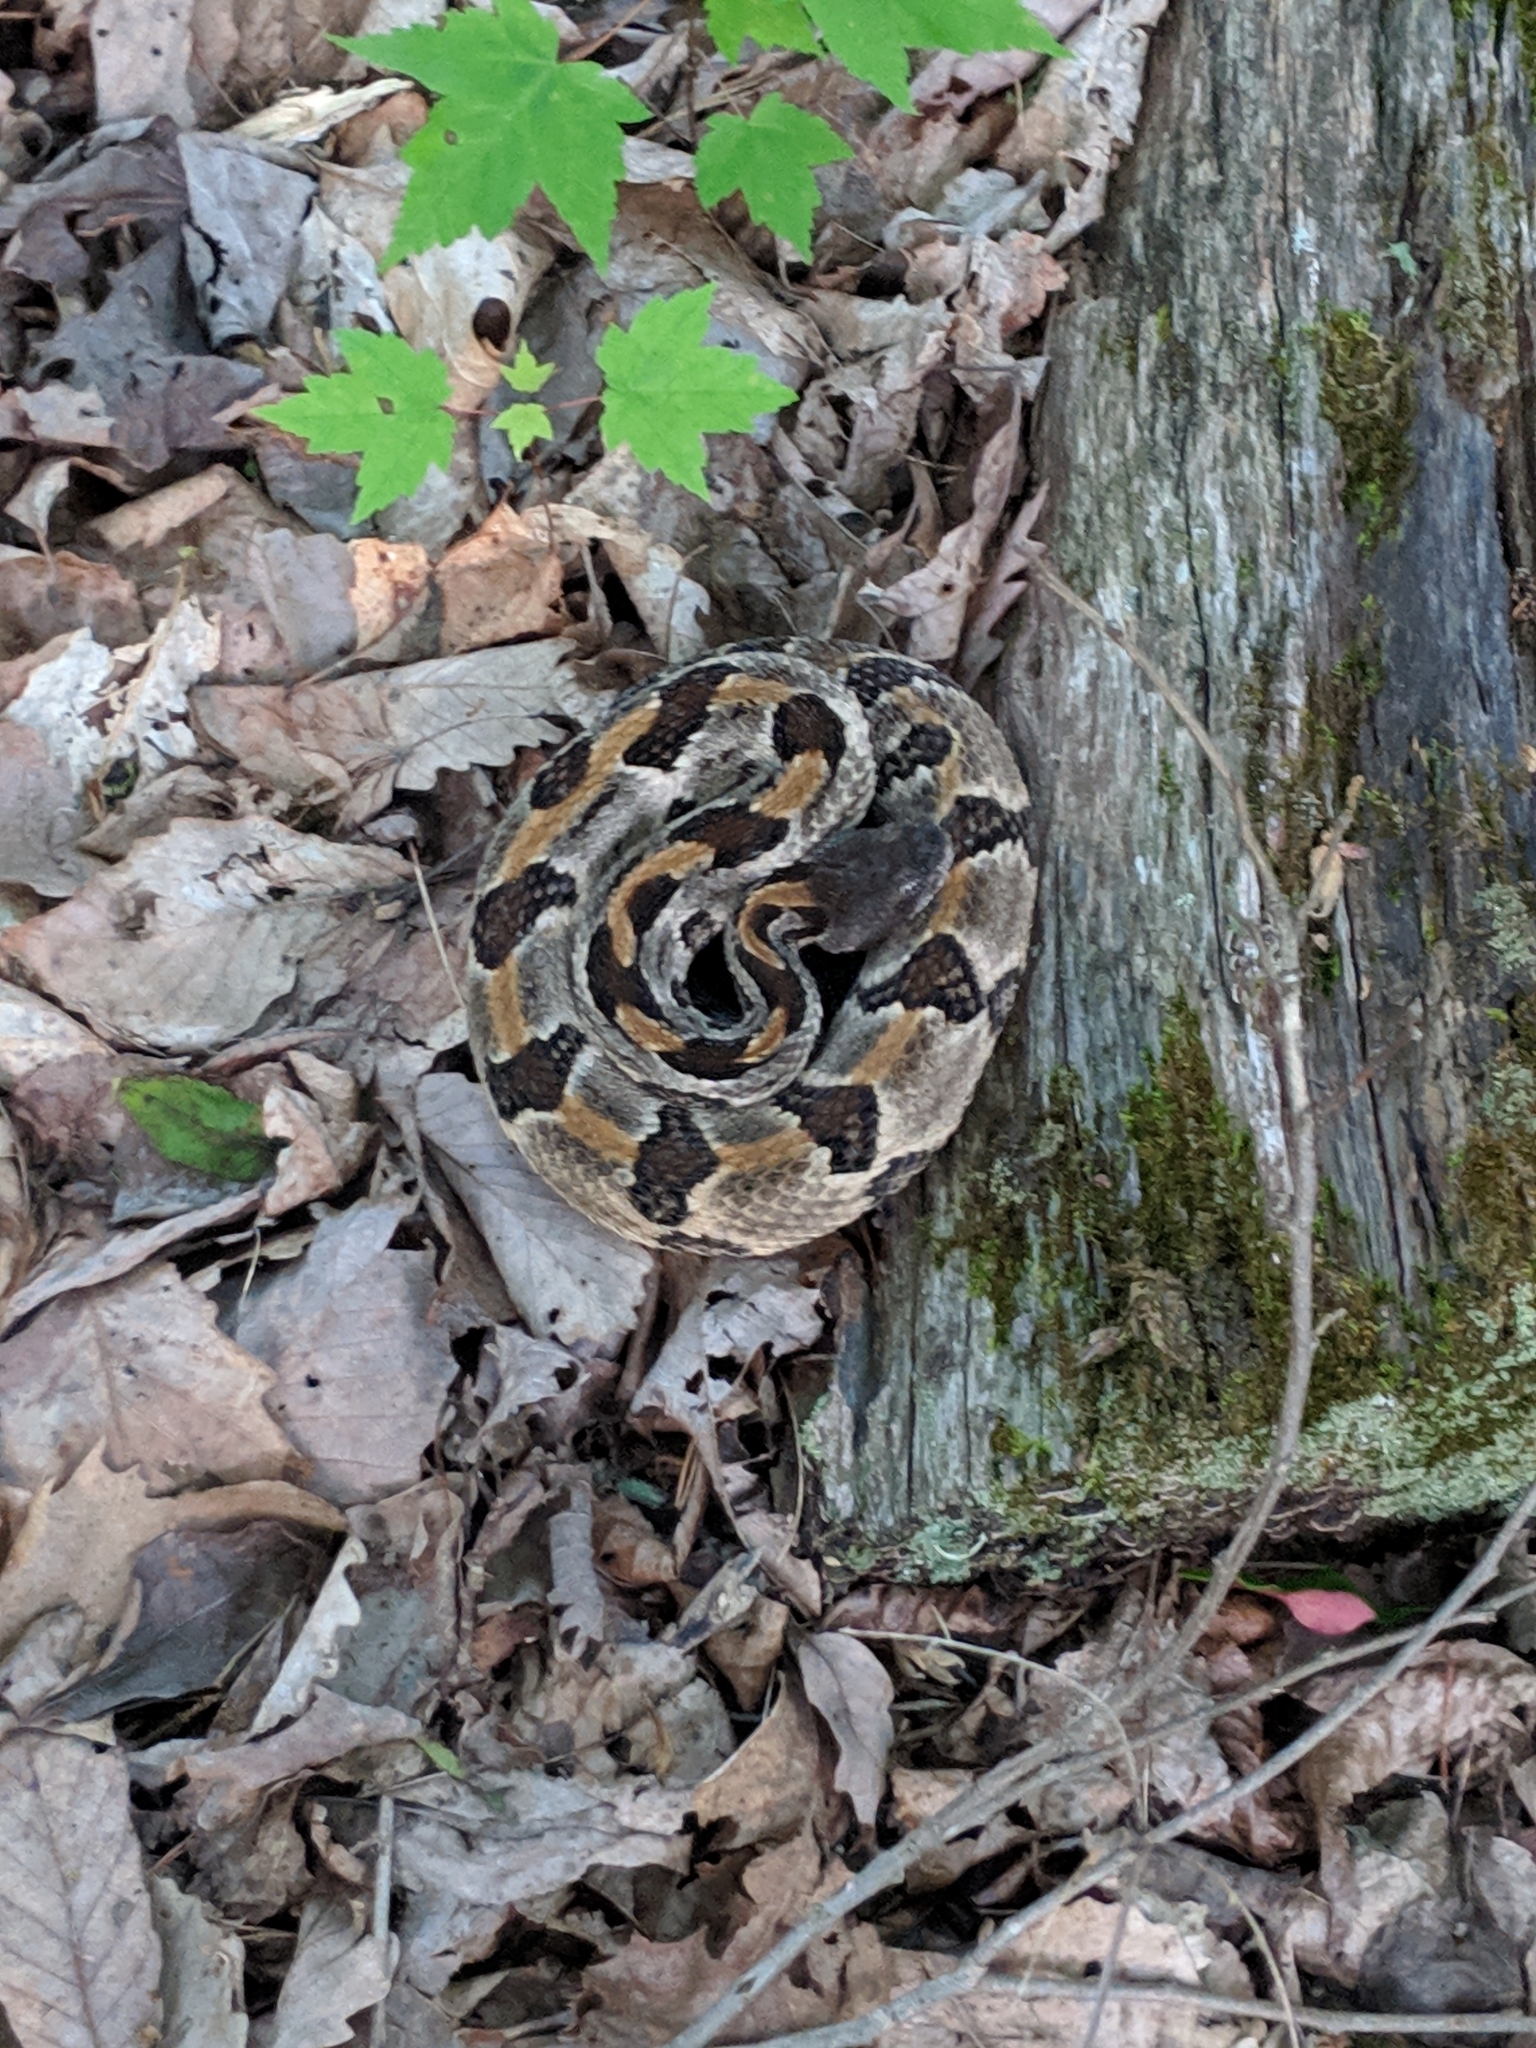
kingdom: Animalia
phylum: Chordata
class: Squamata
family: Viperidae
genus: Crotalus
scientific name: Crotalus horridus
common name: Timber rattlesnake
